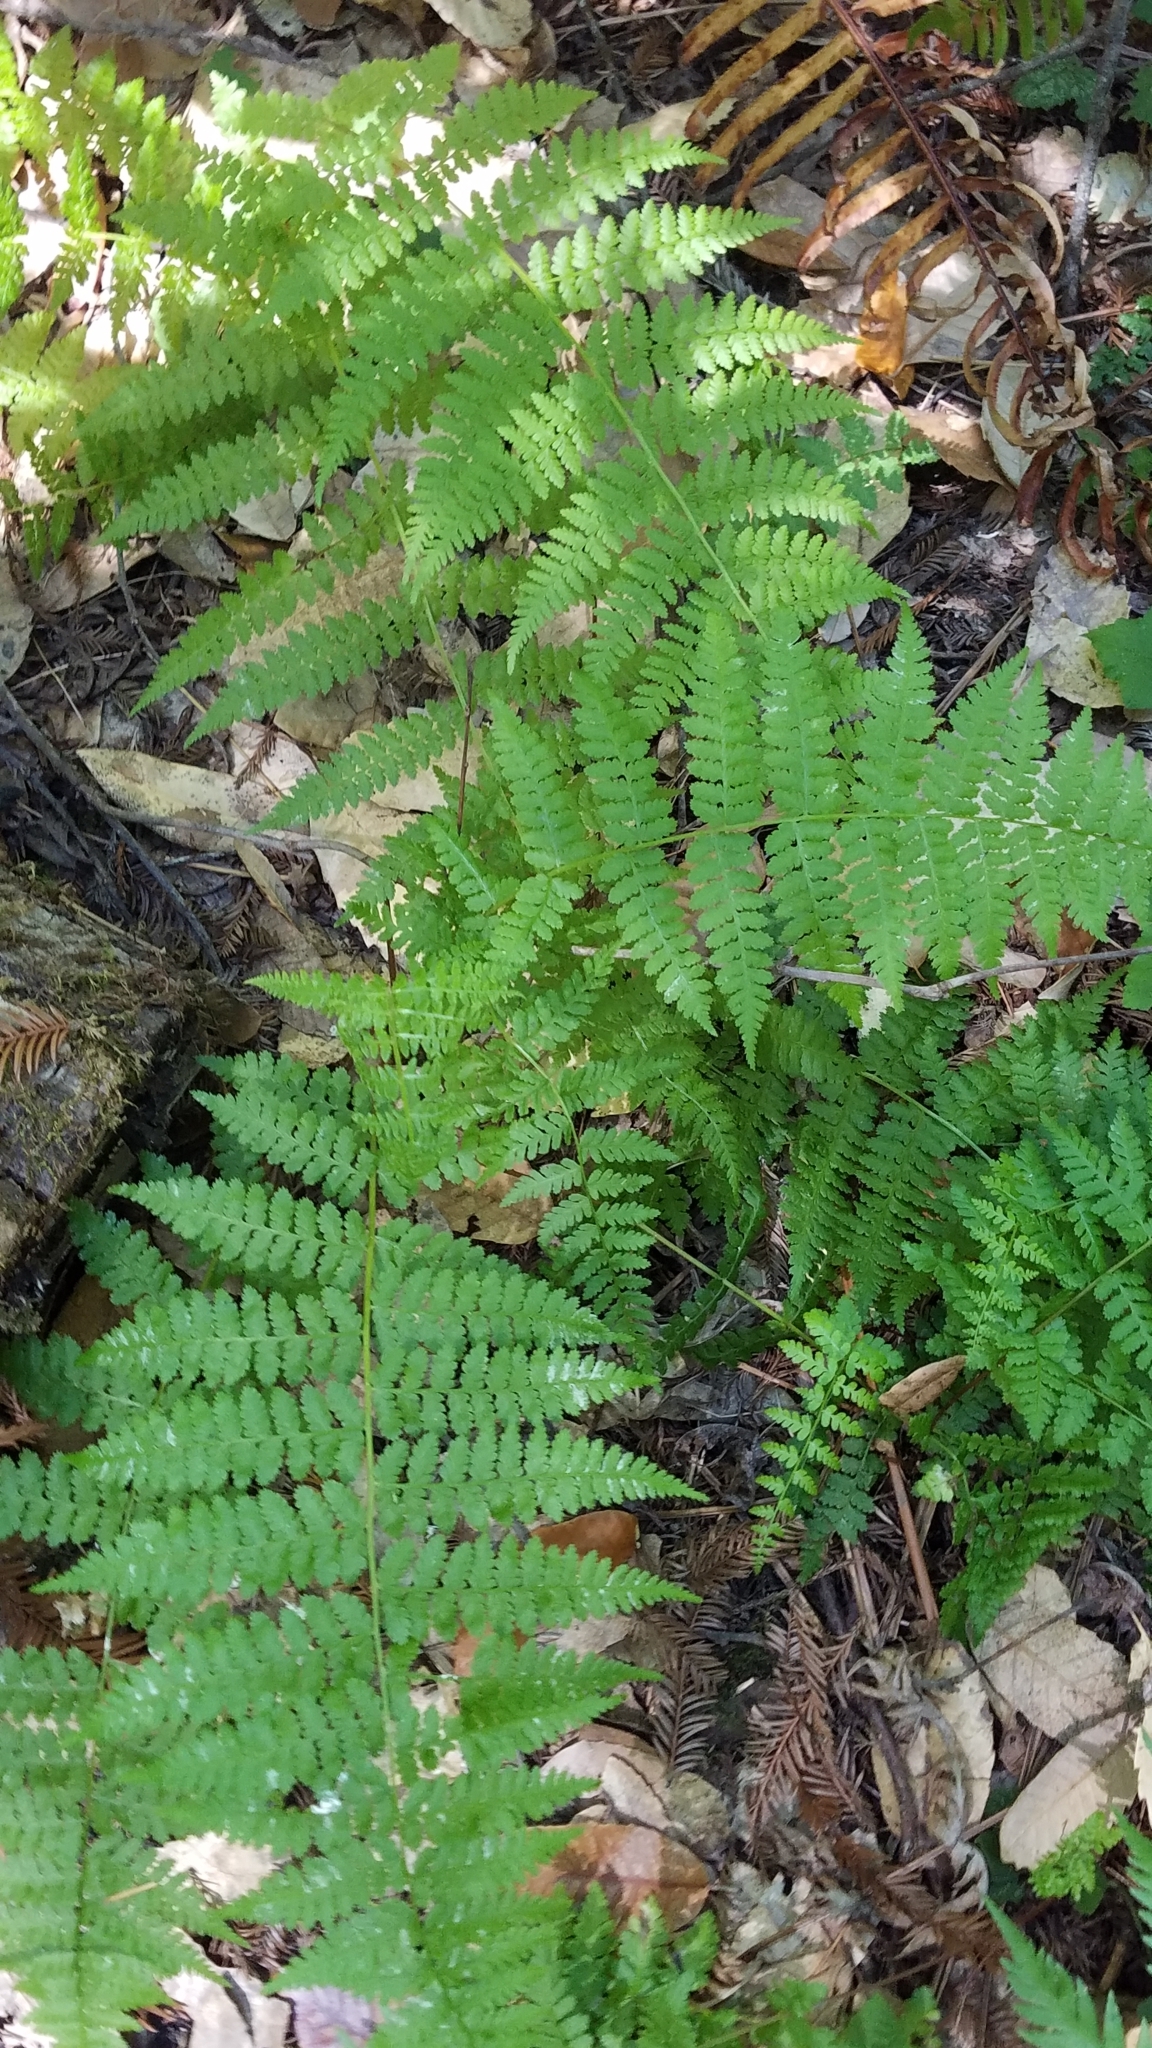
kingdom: Plantae
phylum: Tracheophyta
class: Polypodiopsida
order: Polypodiales
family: Athyriaceae
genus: Athyrium
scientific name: Athyrium filix-femina
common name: Lady fern
